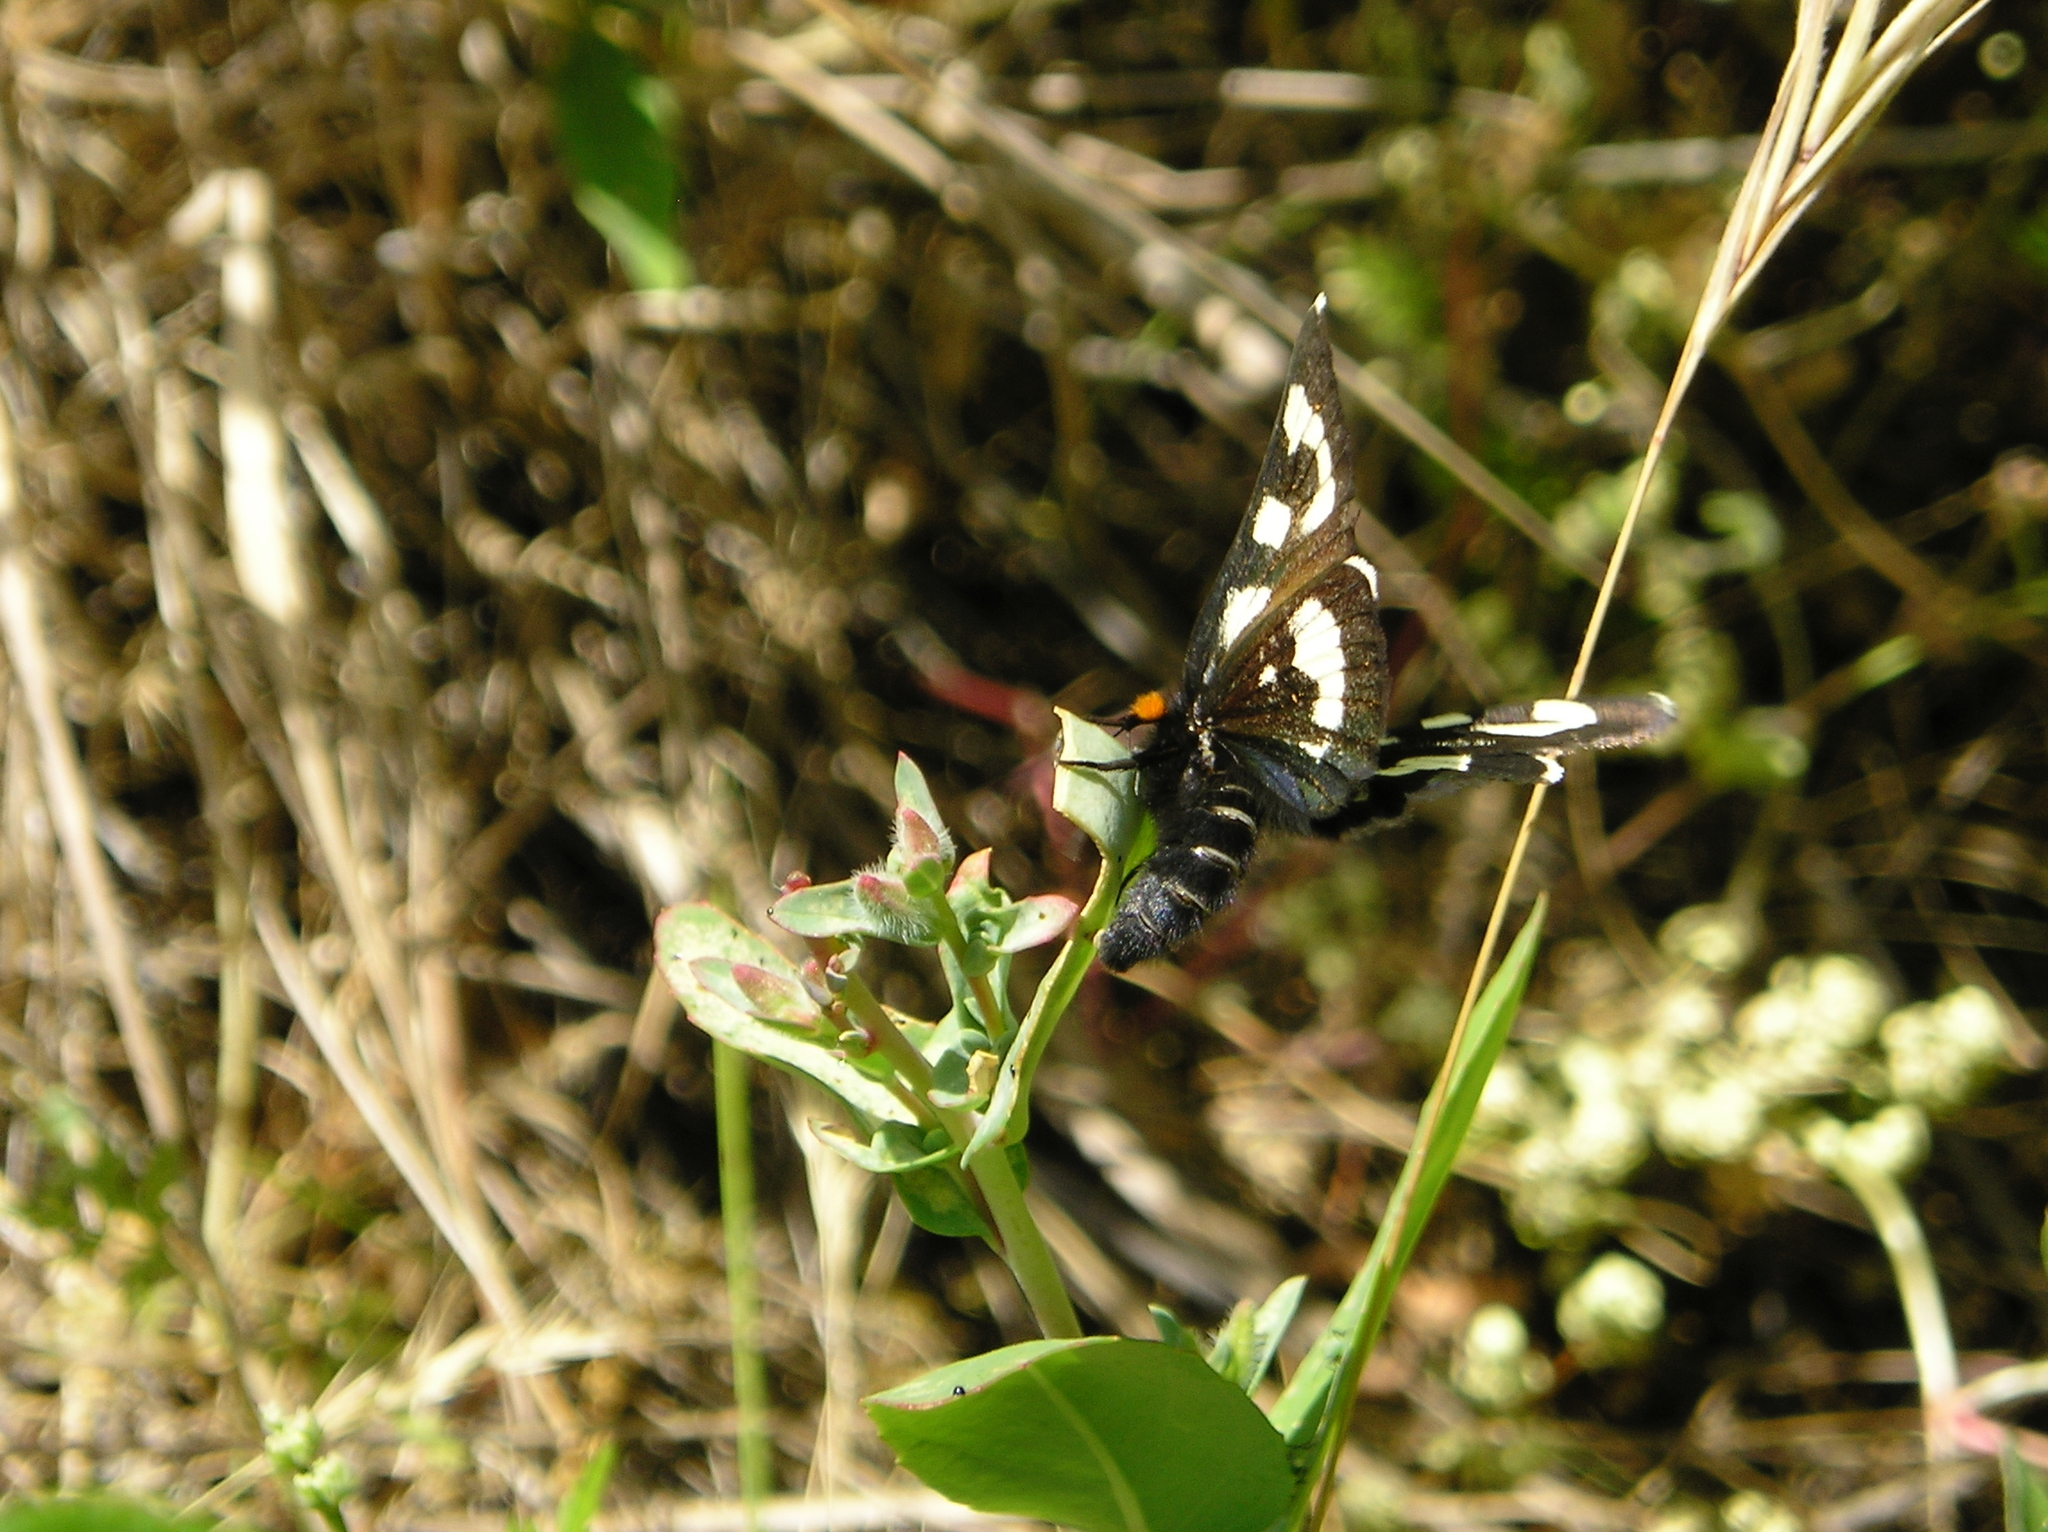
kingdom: Animalia
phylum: Arthropoda
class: Insecta
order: Lepidoptera
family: Noctuidae
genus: Alypia
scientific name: Alypia mariposa
